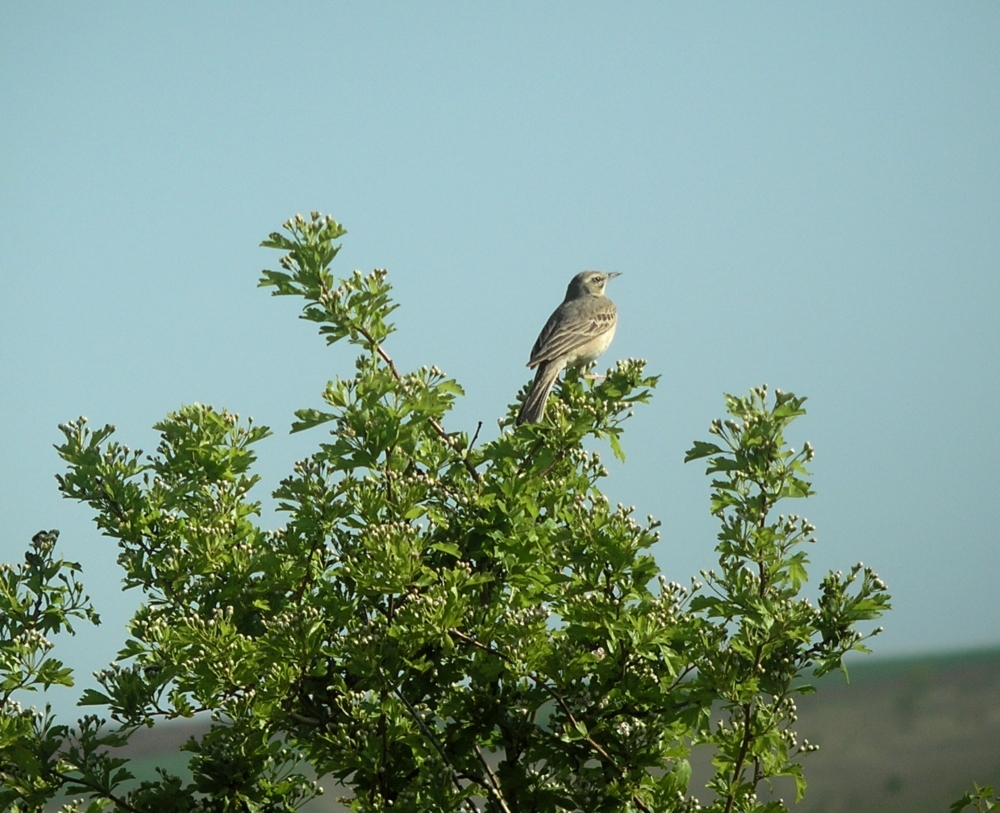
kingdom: Animalia
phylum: Chordata
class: Aves
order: Passeriformes
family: Motacillidae
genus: Anthus
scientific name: Anthus campestris
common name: Tawny pipit
